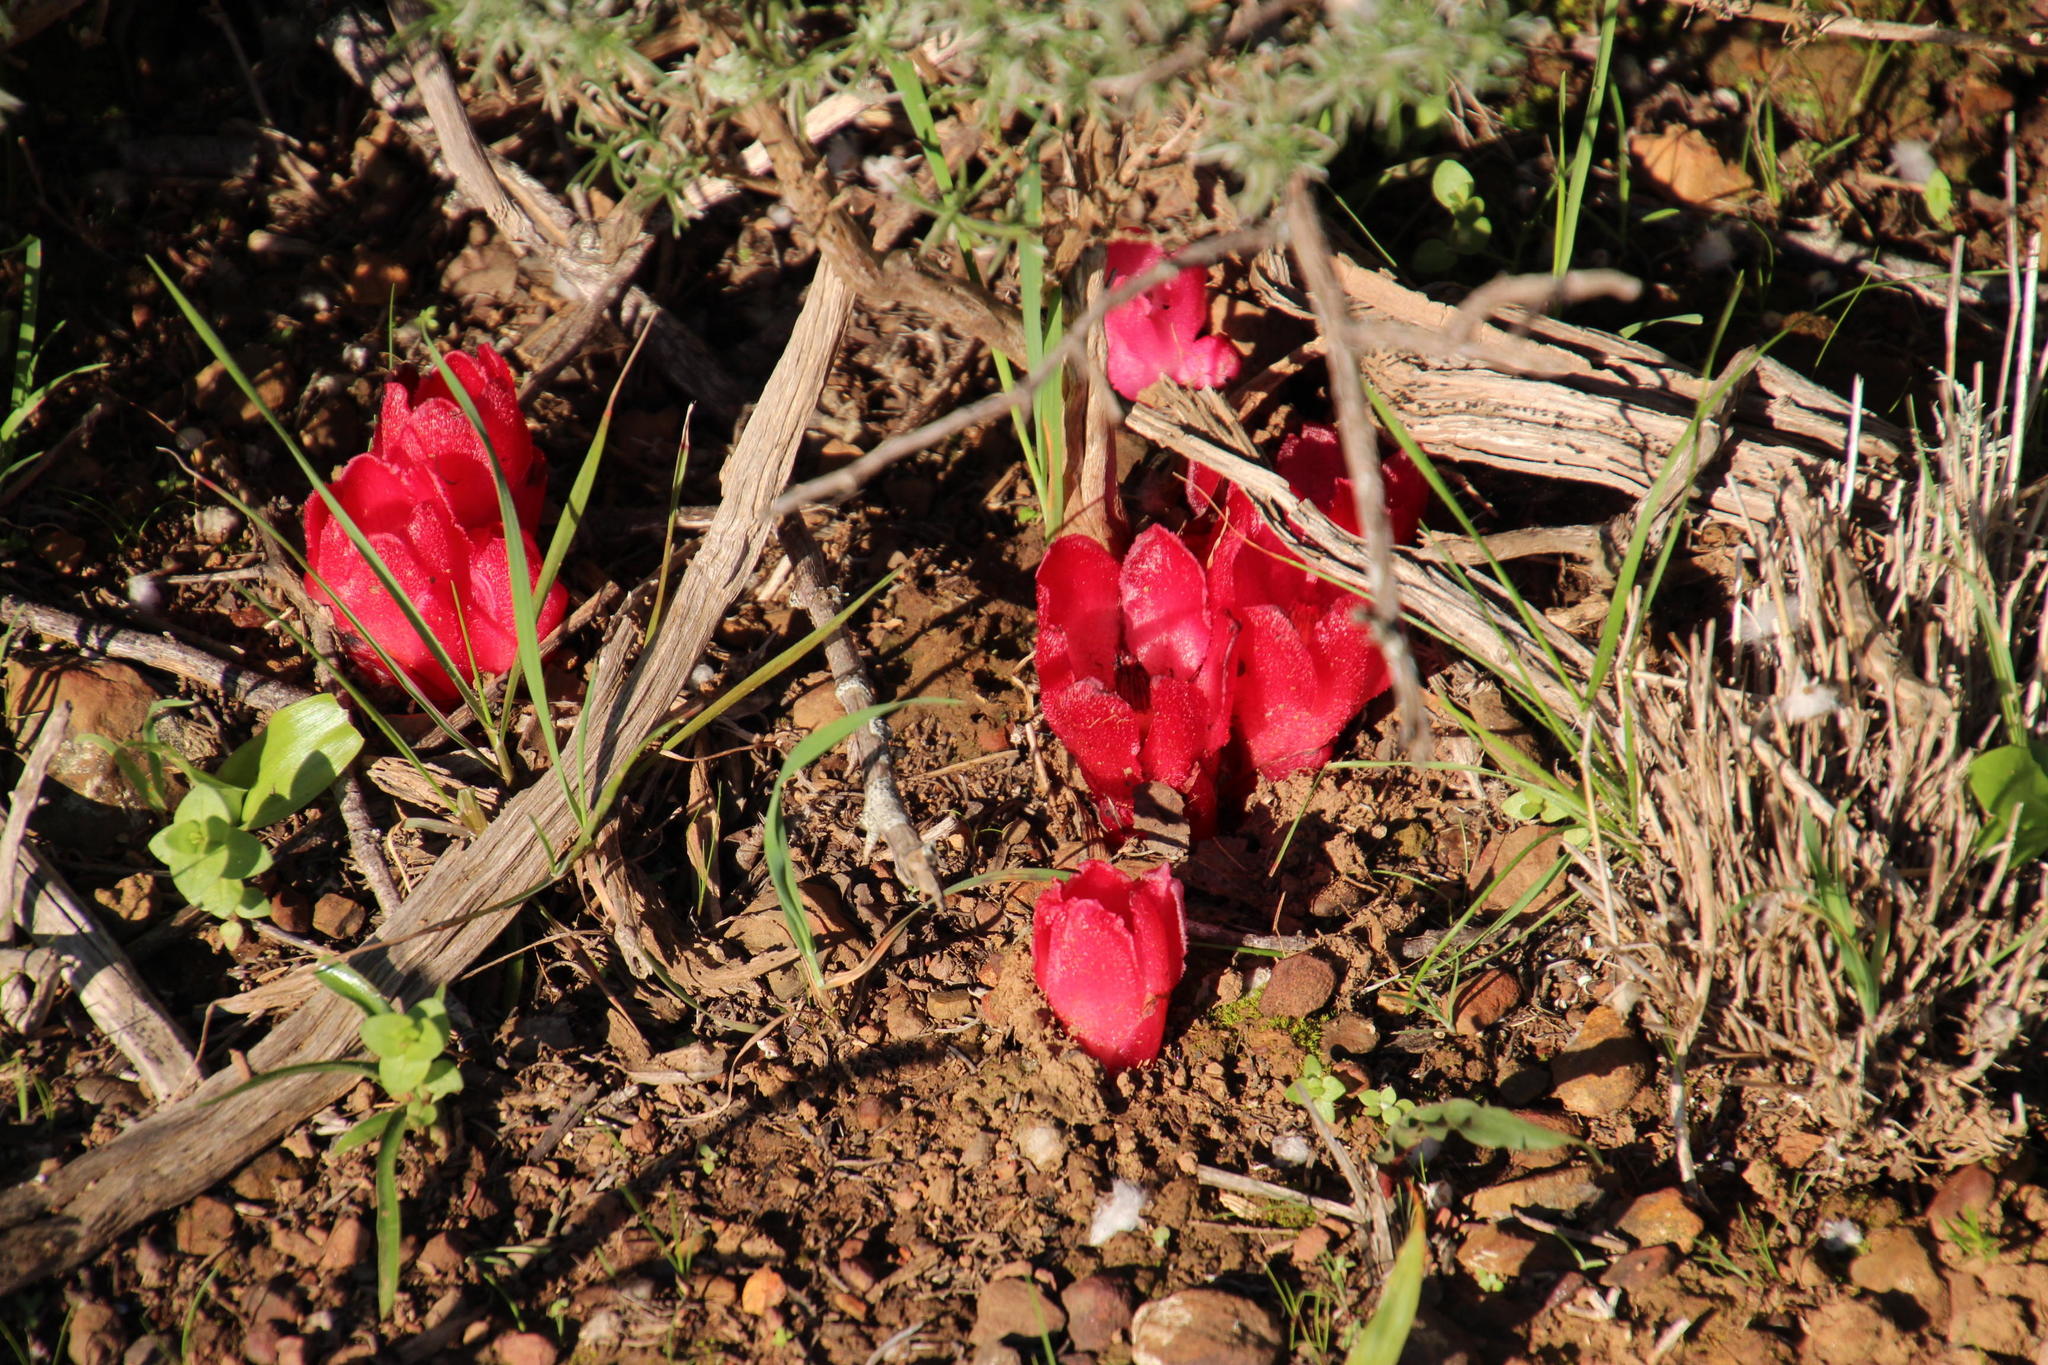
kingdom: Plantae
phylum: Tracheophyta
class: Magnoliopsida
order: Malvales
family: Cytinaceae
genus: Cytinus
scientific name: Cytinus sanguineus
